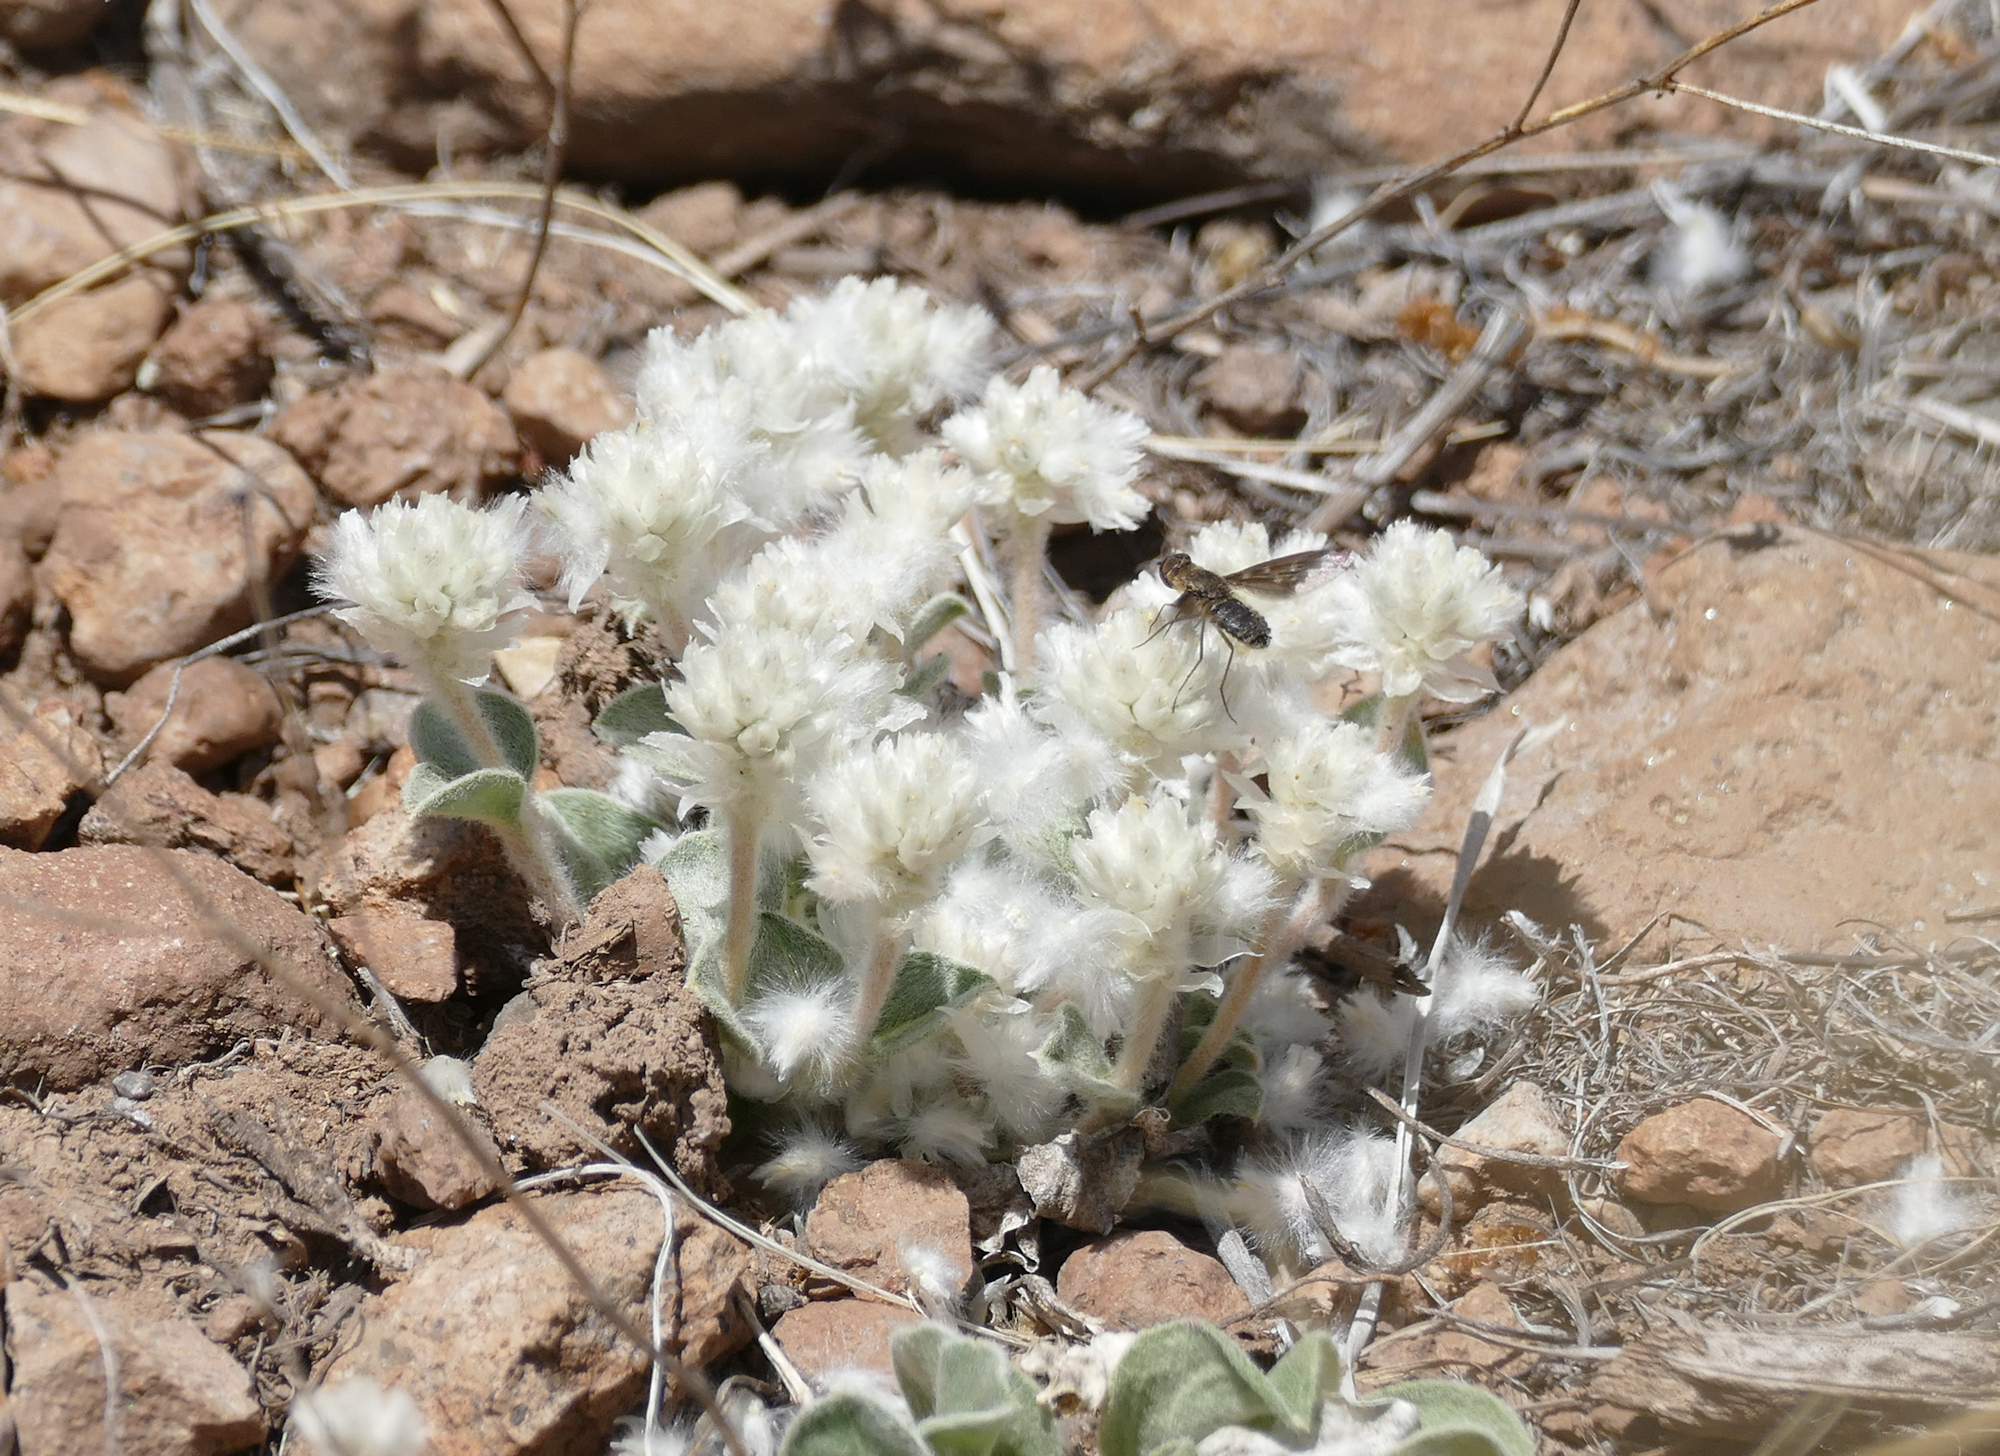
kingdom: Plantae
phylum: Tracheophyta
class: Magnoliopsida
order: Caryophyllales
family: Amaranthaceae
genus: Gomphrena
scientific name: Gomphrena caespitosa
